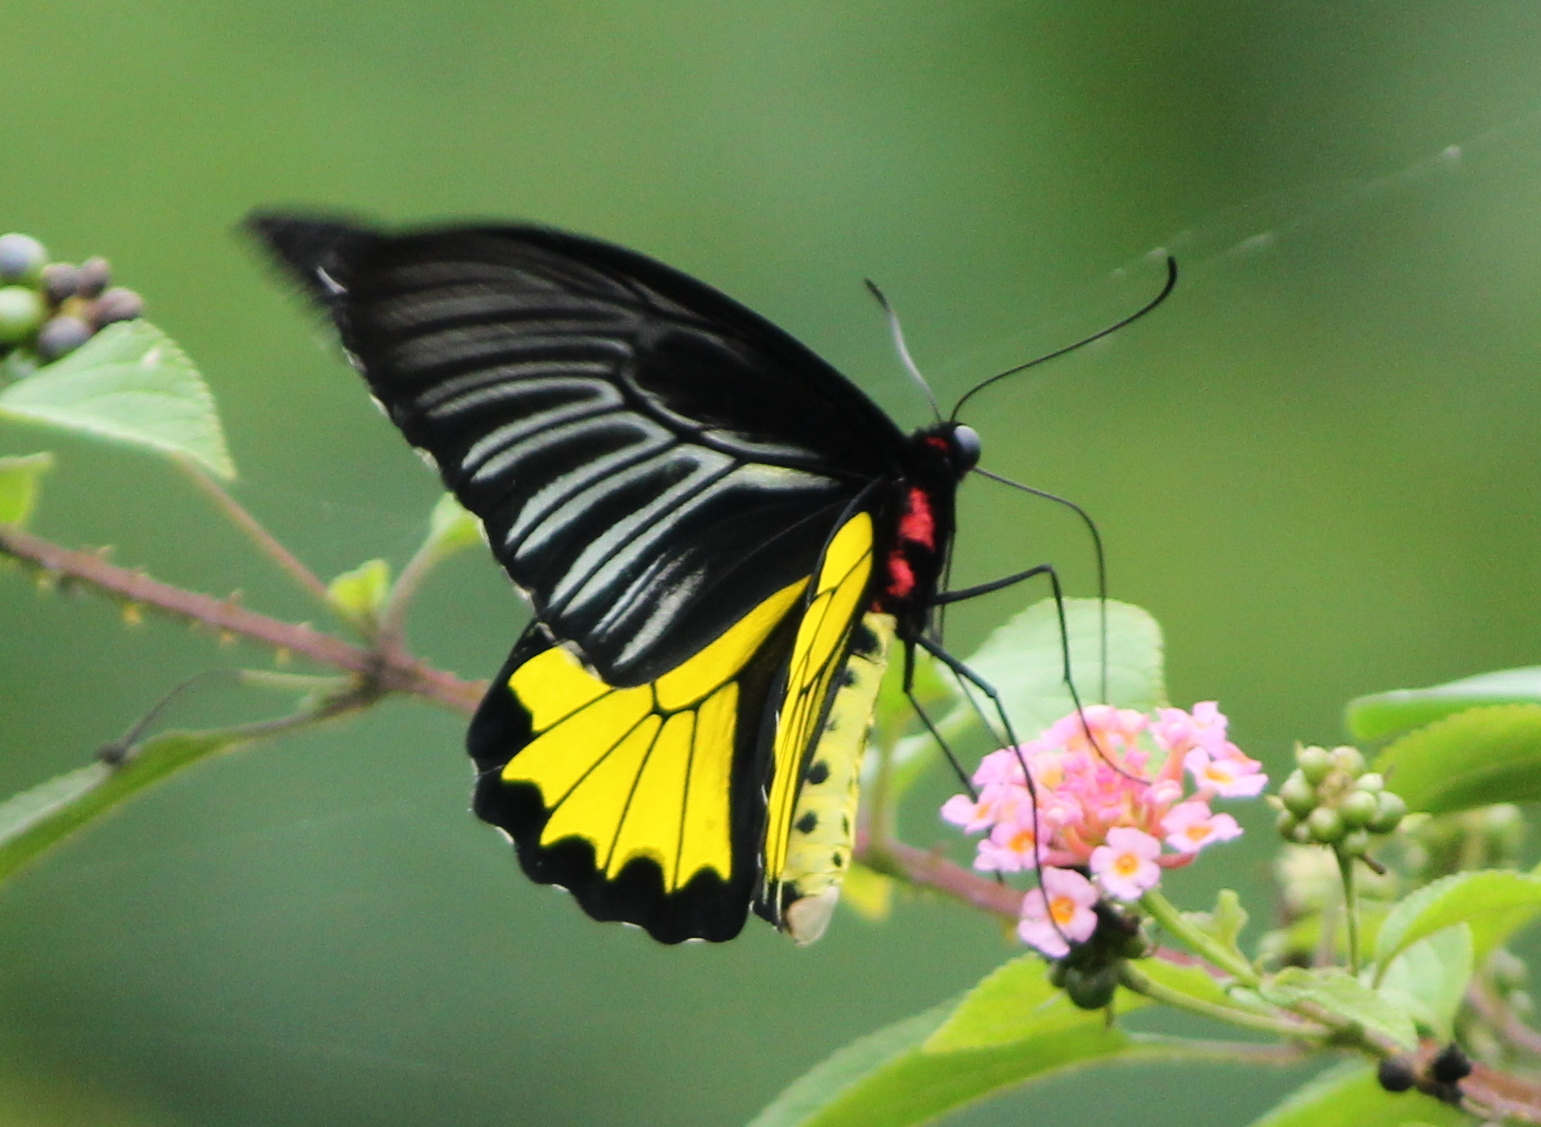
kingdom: Animalia
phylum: Arthropoda
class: Insecta
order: Lepidoptera
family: Papilionidae
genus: Troides
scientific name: Troides minos
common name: Malabar birdwing
